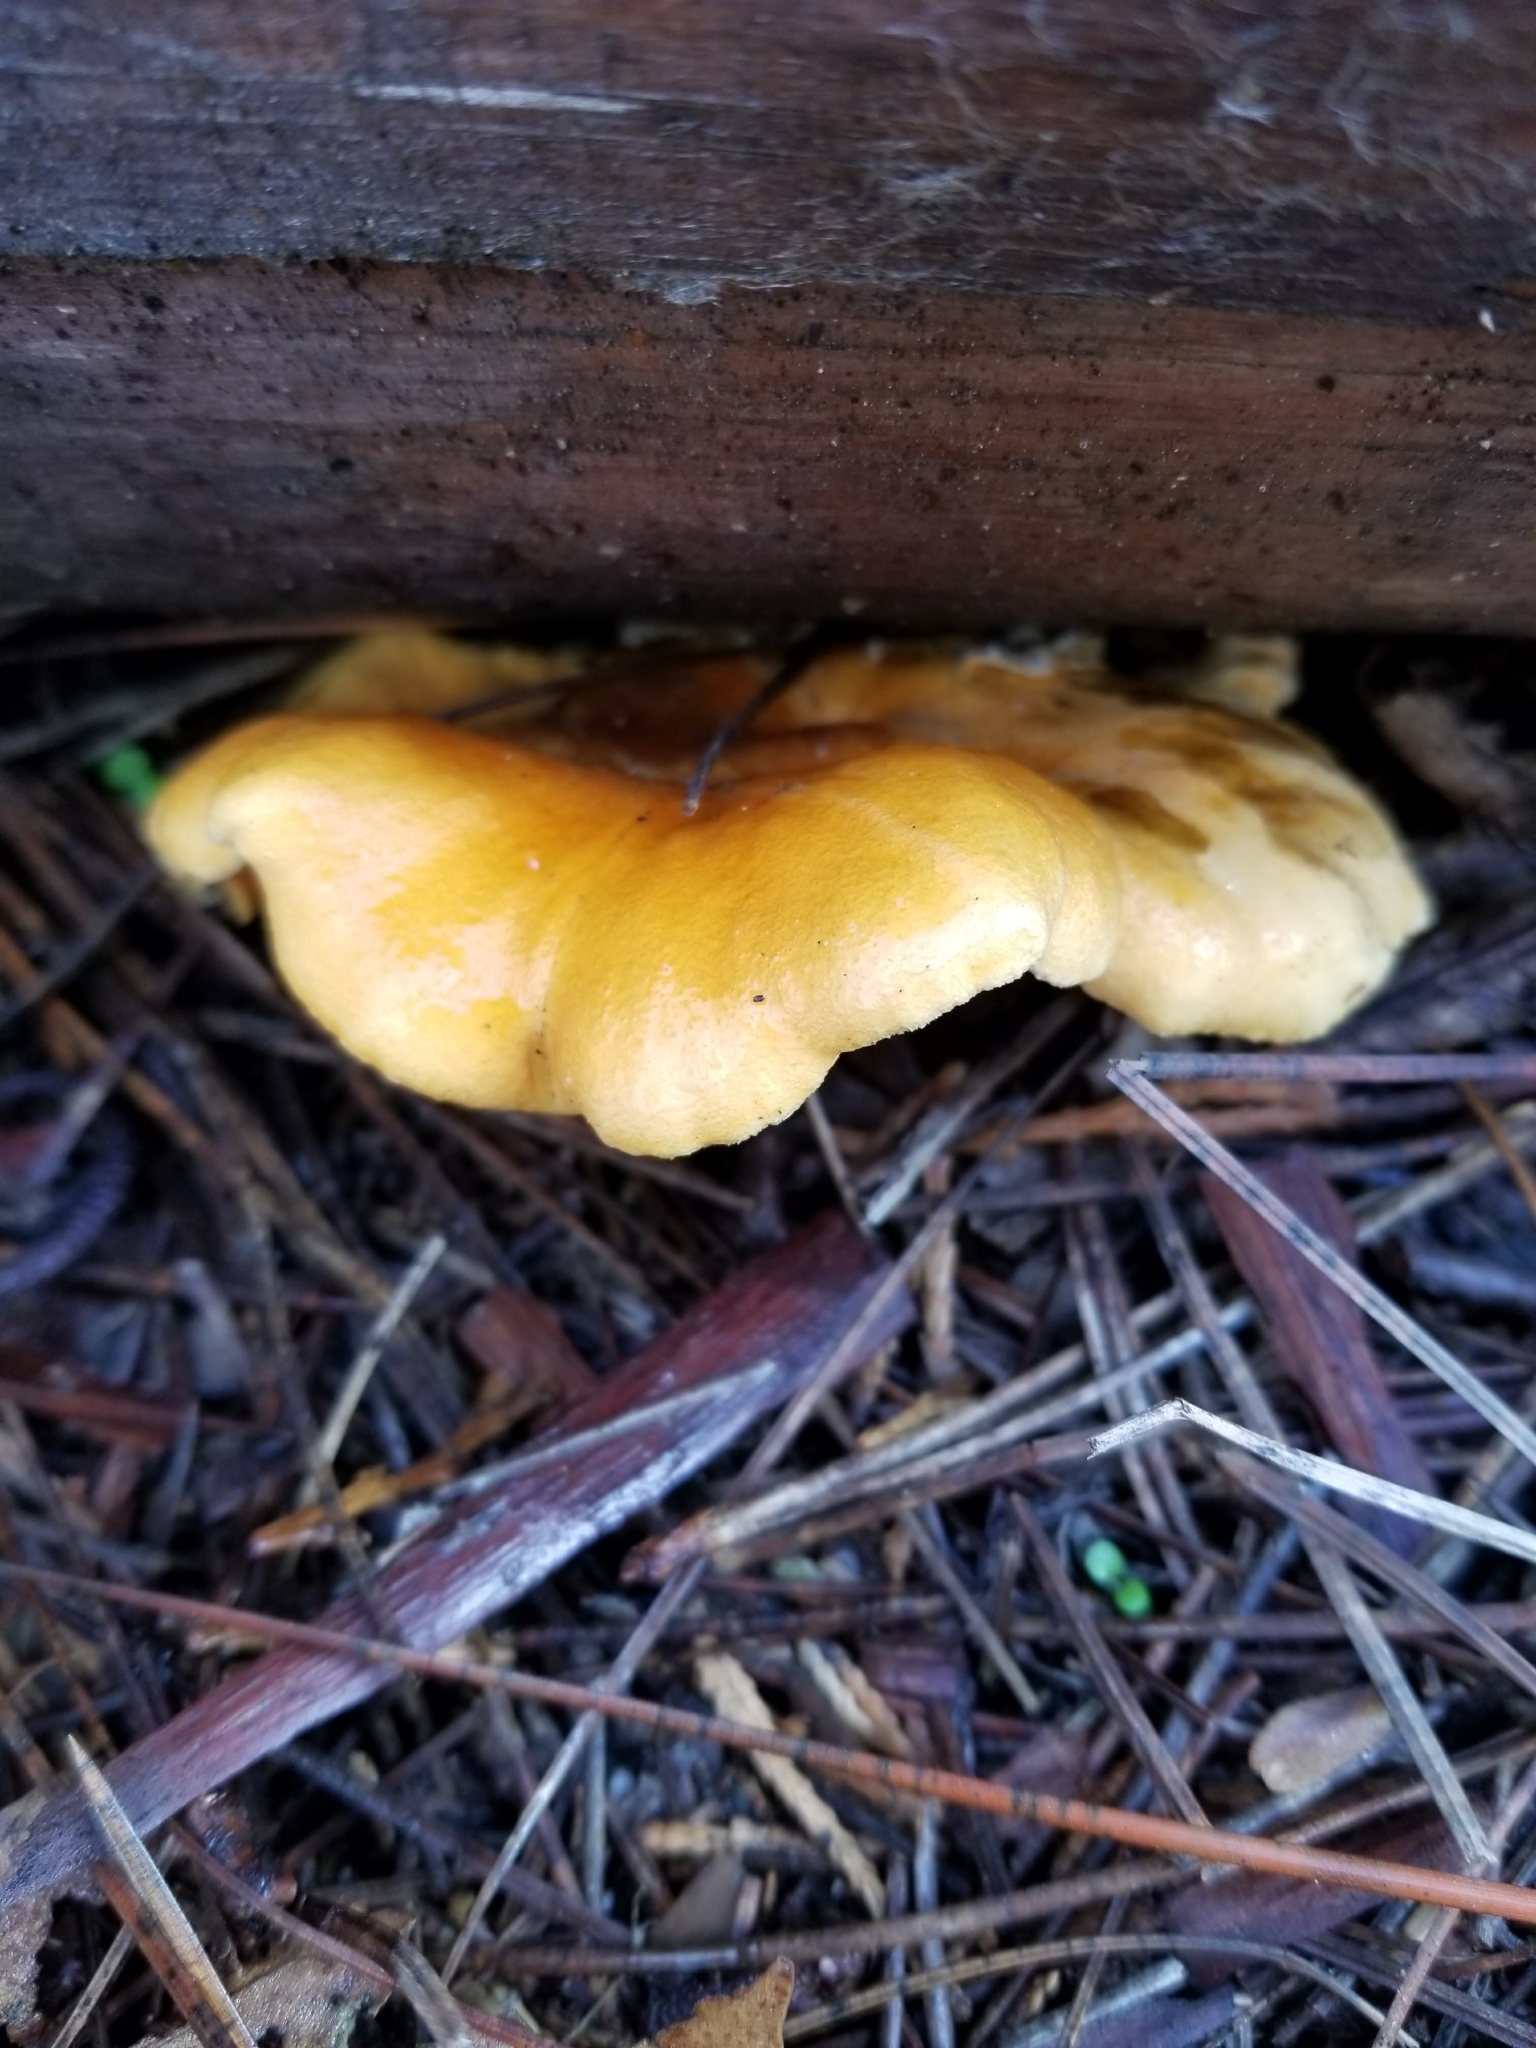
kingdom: Fungi
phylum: Basidiomycota
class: Agaricomycetes
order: Boletales
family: Hygrophoropsidaceae
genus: Hygrophoropsis
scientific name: Hygrophoropsis aurantiaca
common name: False chanterelle
